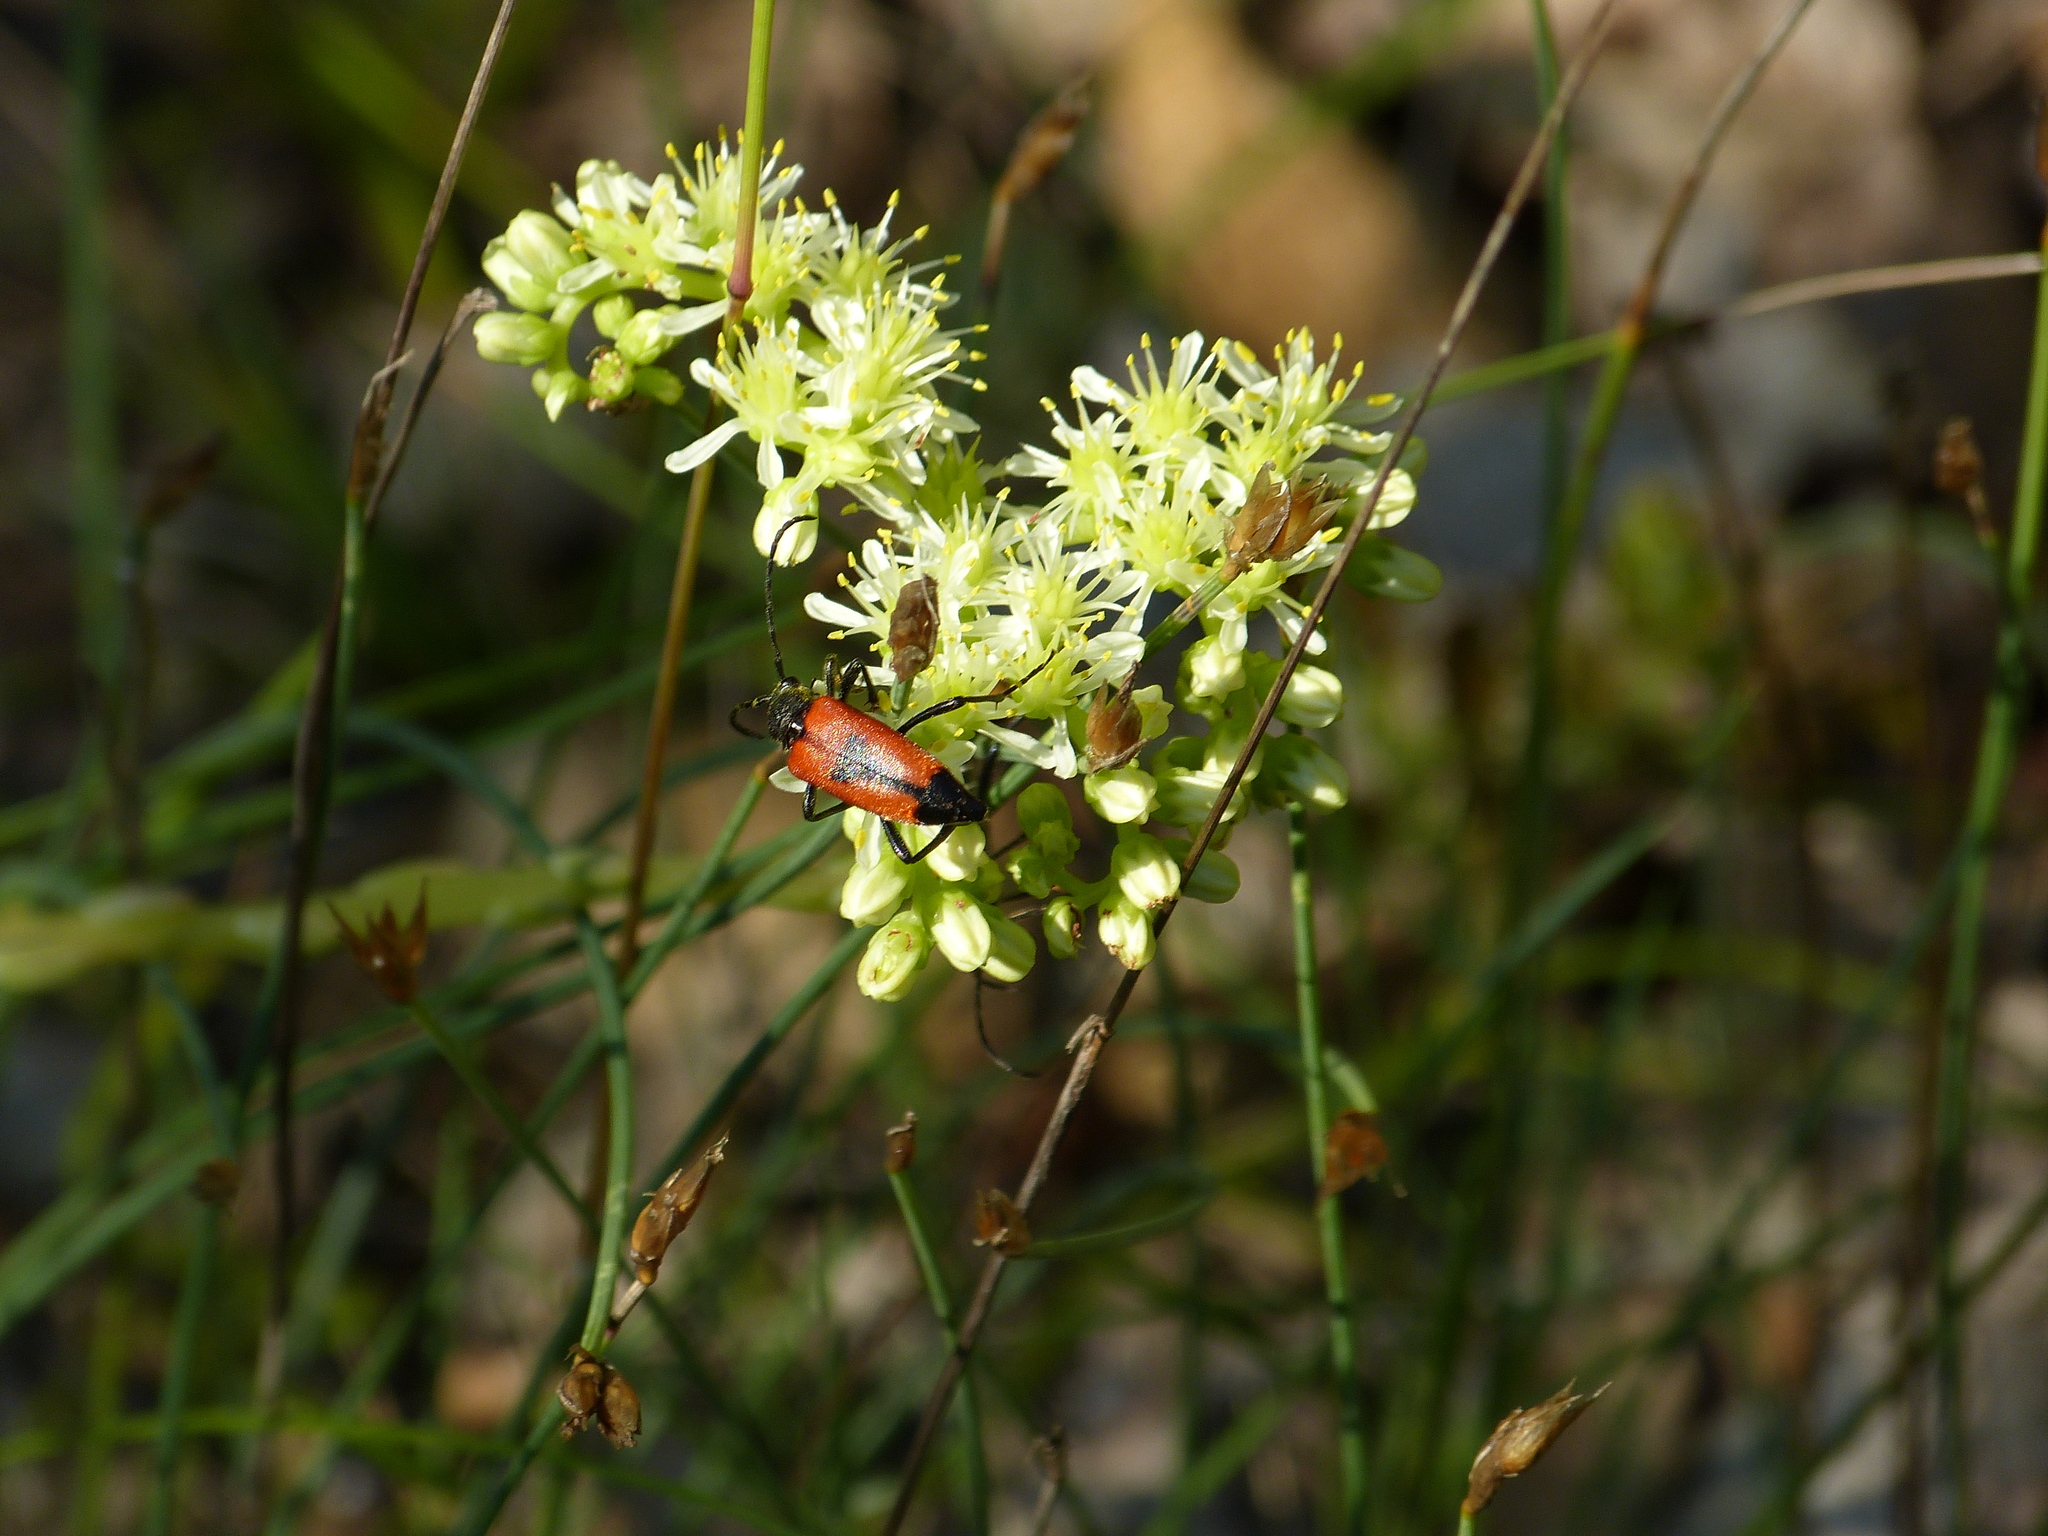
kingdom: Animalia
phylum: Arthropoda
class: Insecta
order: Coleoptera
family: Cerambycidae
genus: Stictoleptura
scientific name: Stictoleptura cordigera
